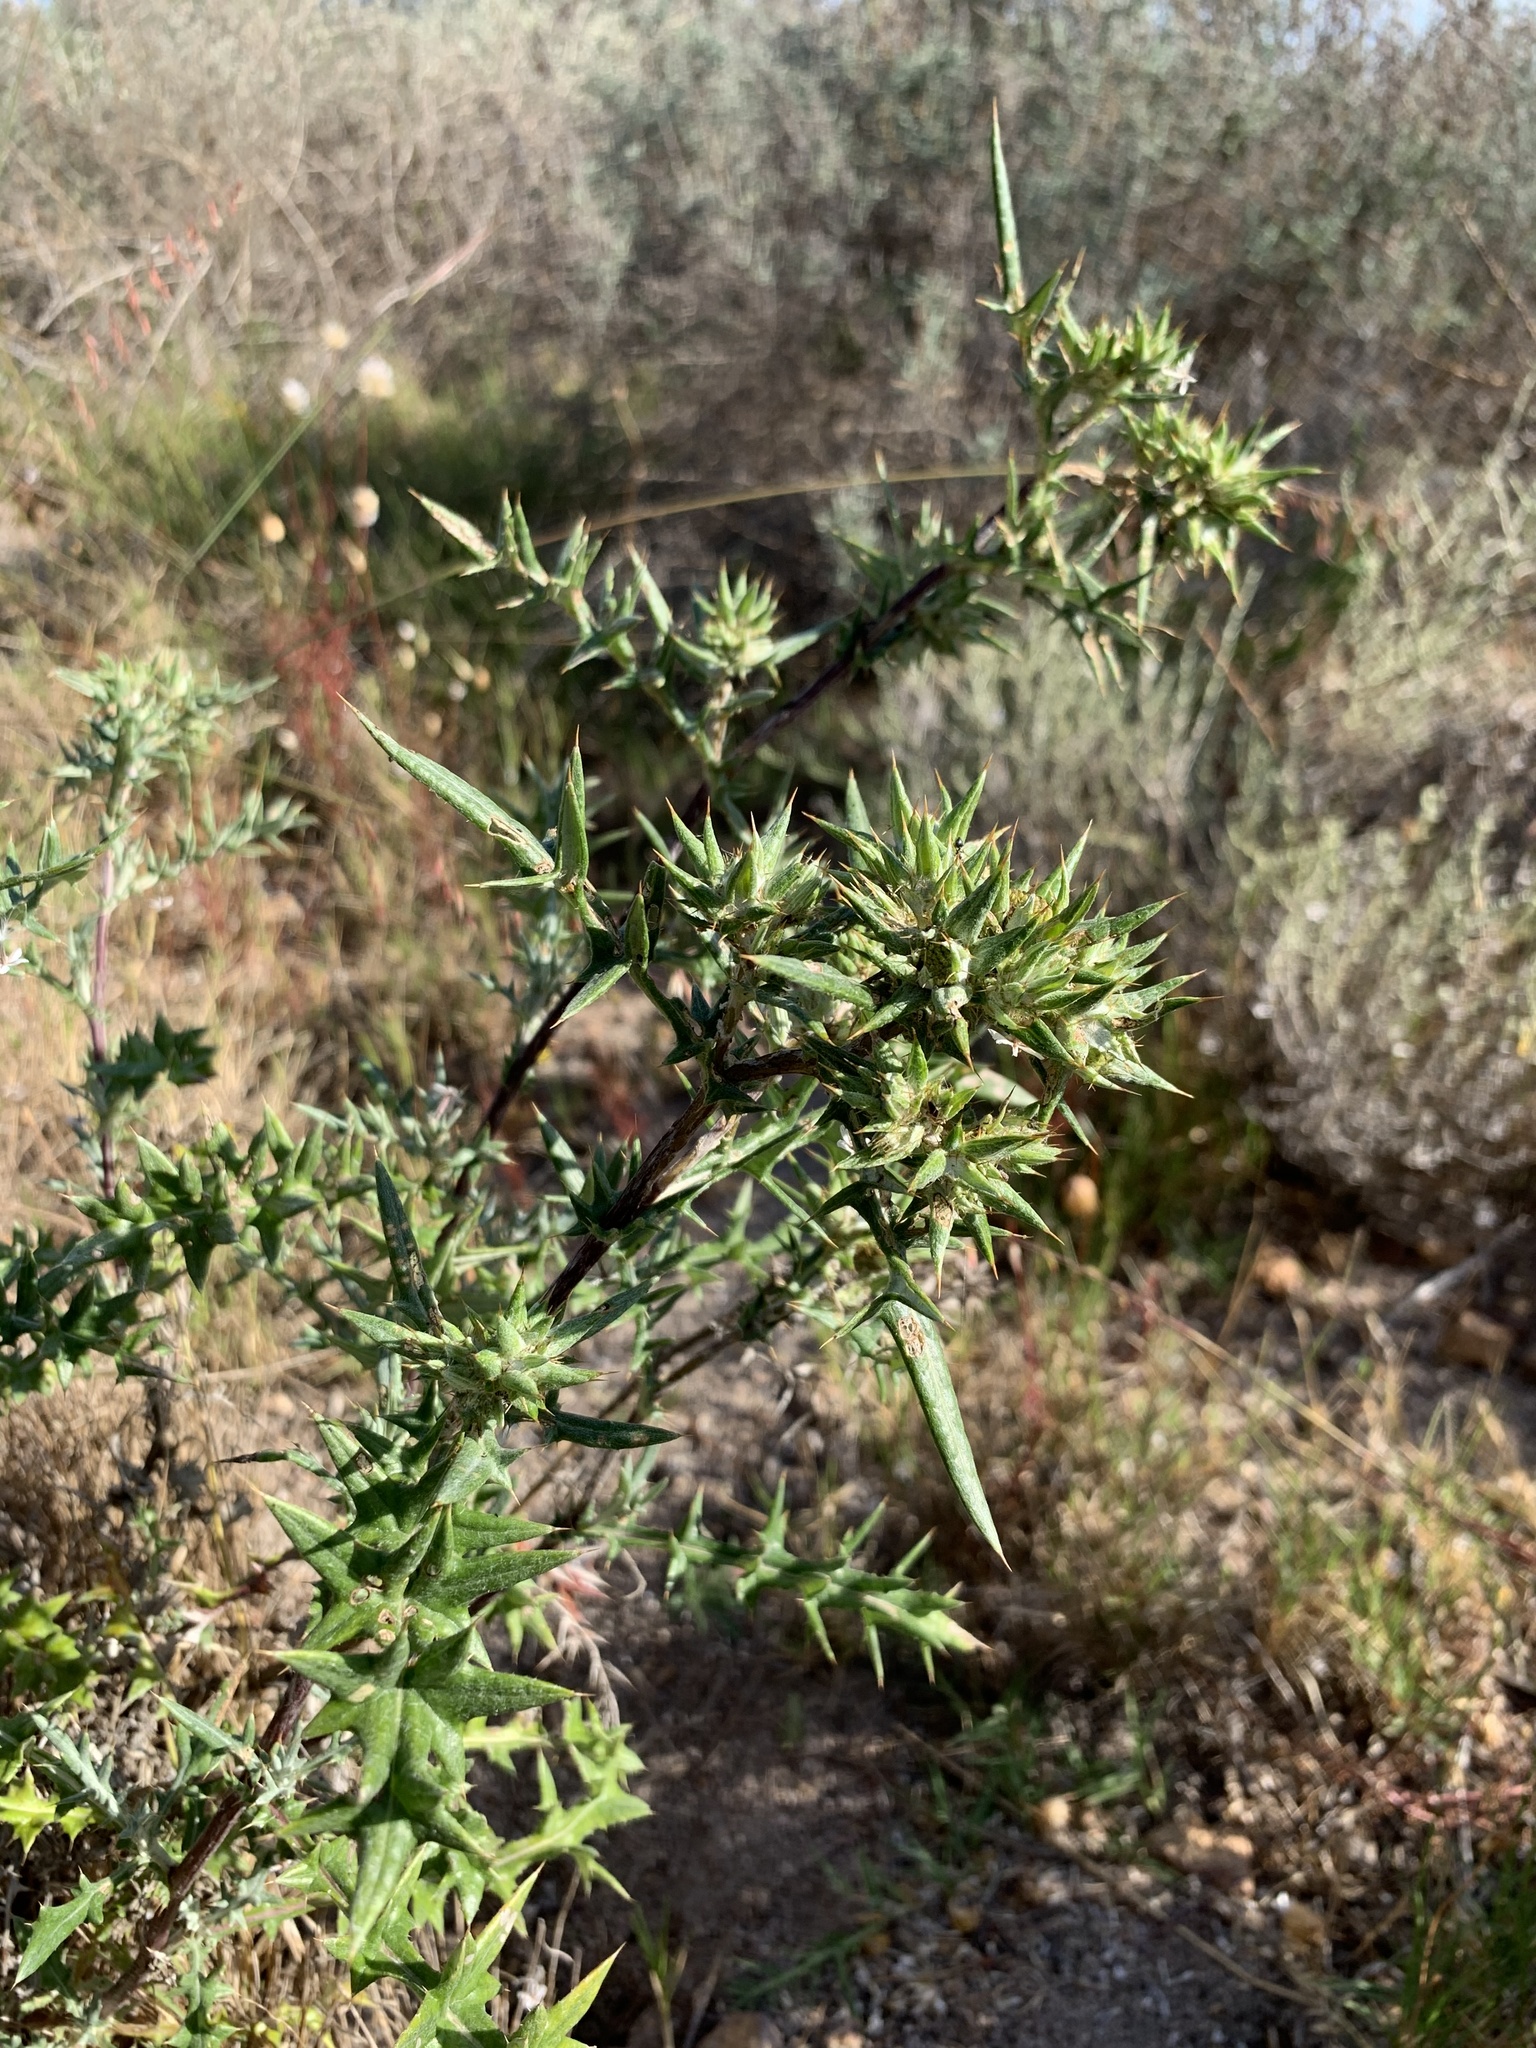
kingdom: Plantae
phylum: Tracheophyta
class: Magnoliopsida
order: Asterales
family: Asteraceae
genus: Berkheya
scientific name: Berkheya rigida
